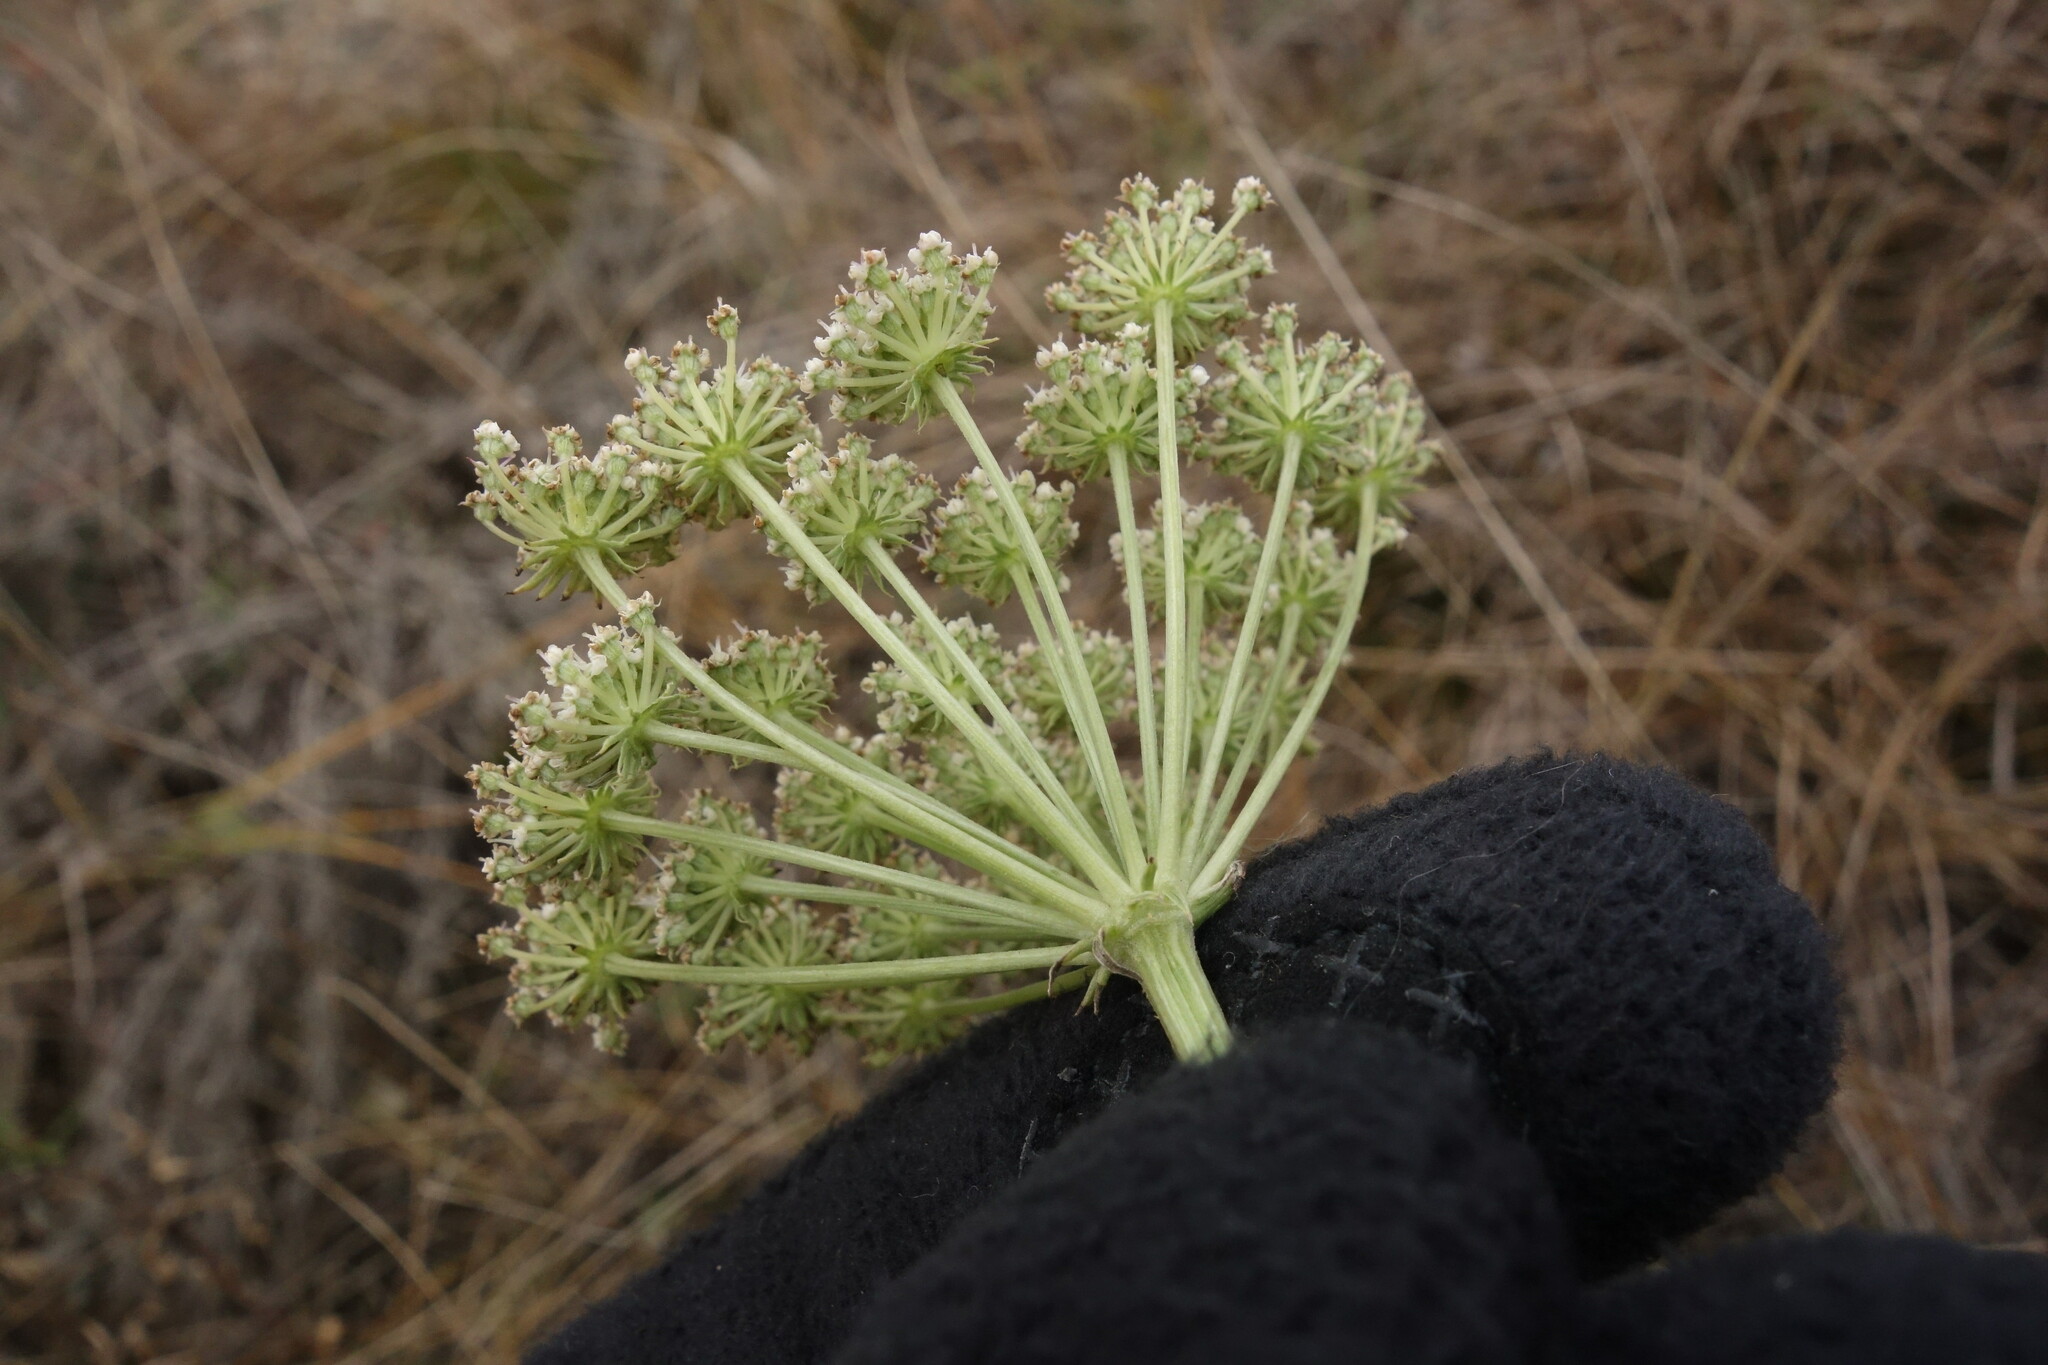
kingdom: Plantae
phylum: Tracheophyta
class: Magnoliopsida
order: Apiales
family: Apiaceae
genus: Seseli
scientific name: Seseli libanotis
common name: Mooncarrot
